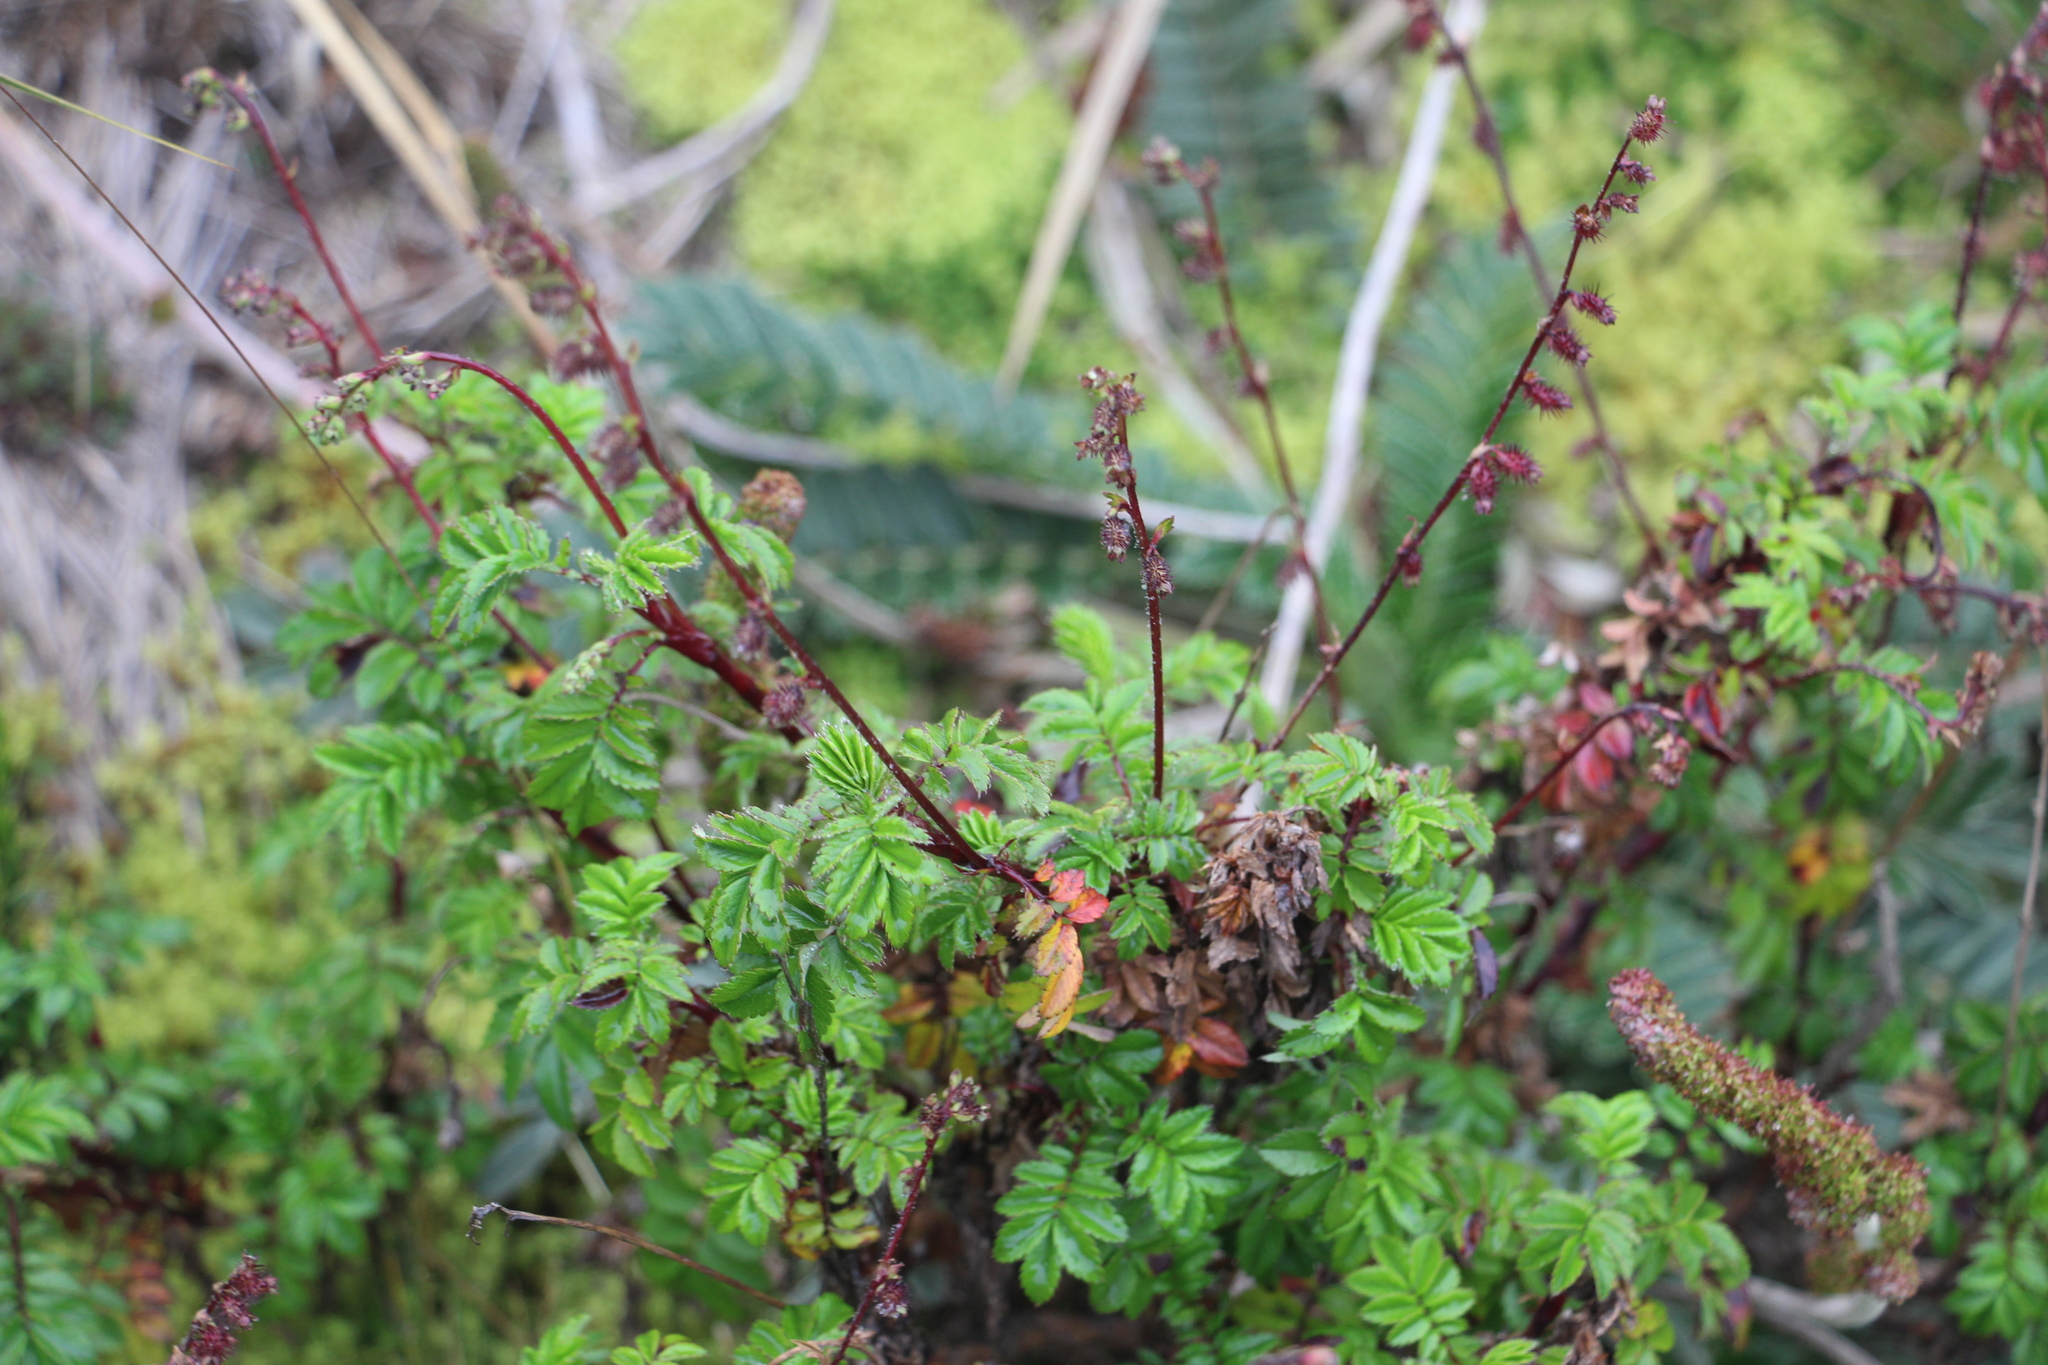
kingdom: Plantae
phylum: Tracheophyta
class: Magnoliopsida
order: Rosales
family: Rosaceae
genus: Acaena
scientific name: Acaena elongata
